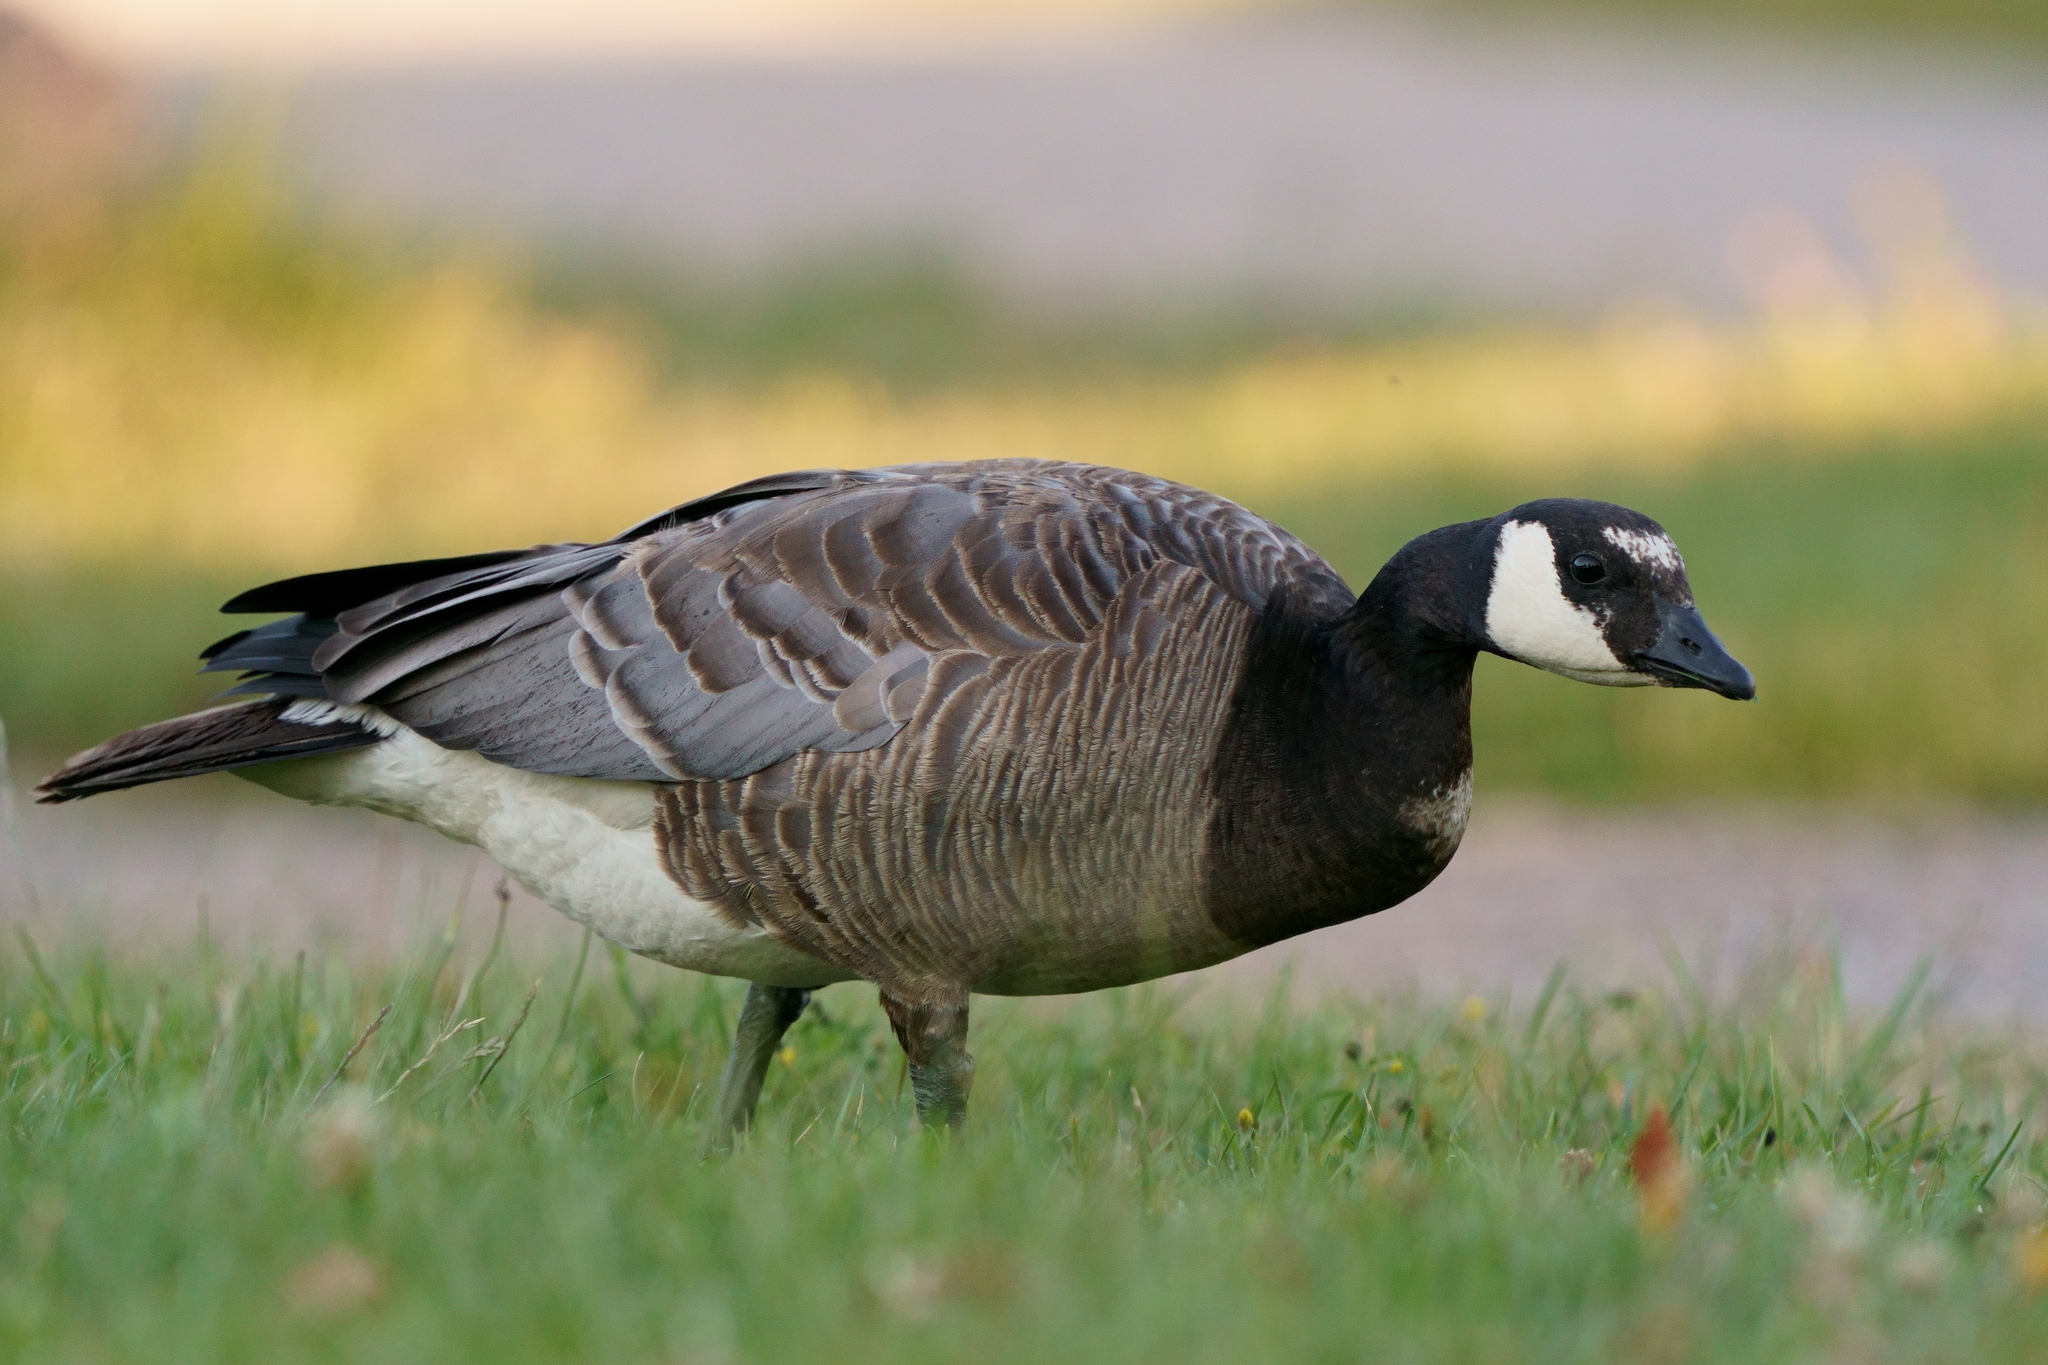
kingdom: Animalia
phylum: Chordata
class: Aves
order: Anseriformes
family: Anatidae
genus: Branta
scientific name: Branta
